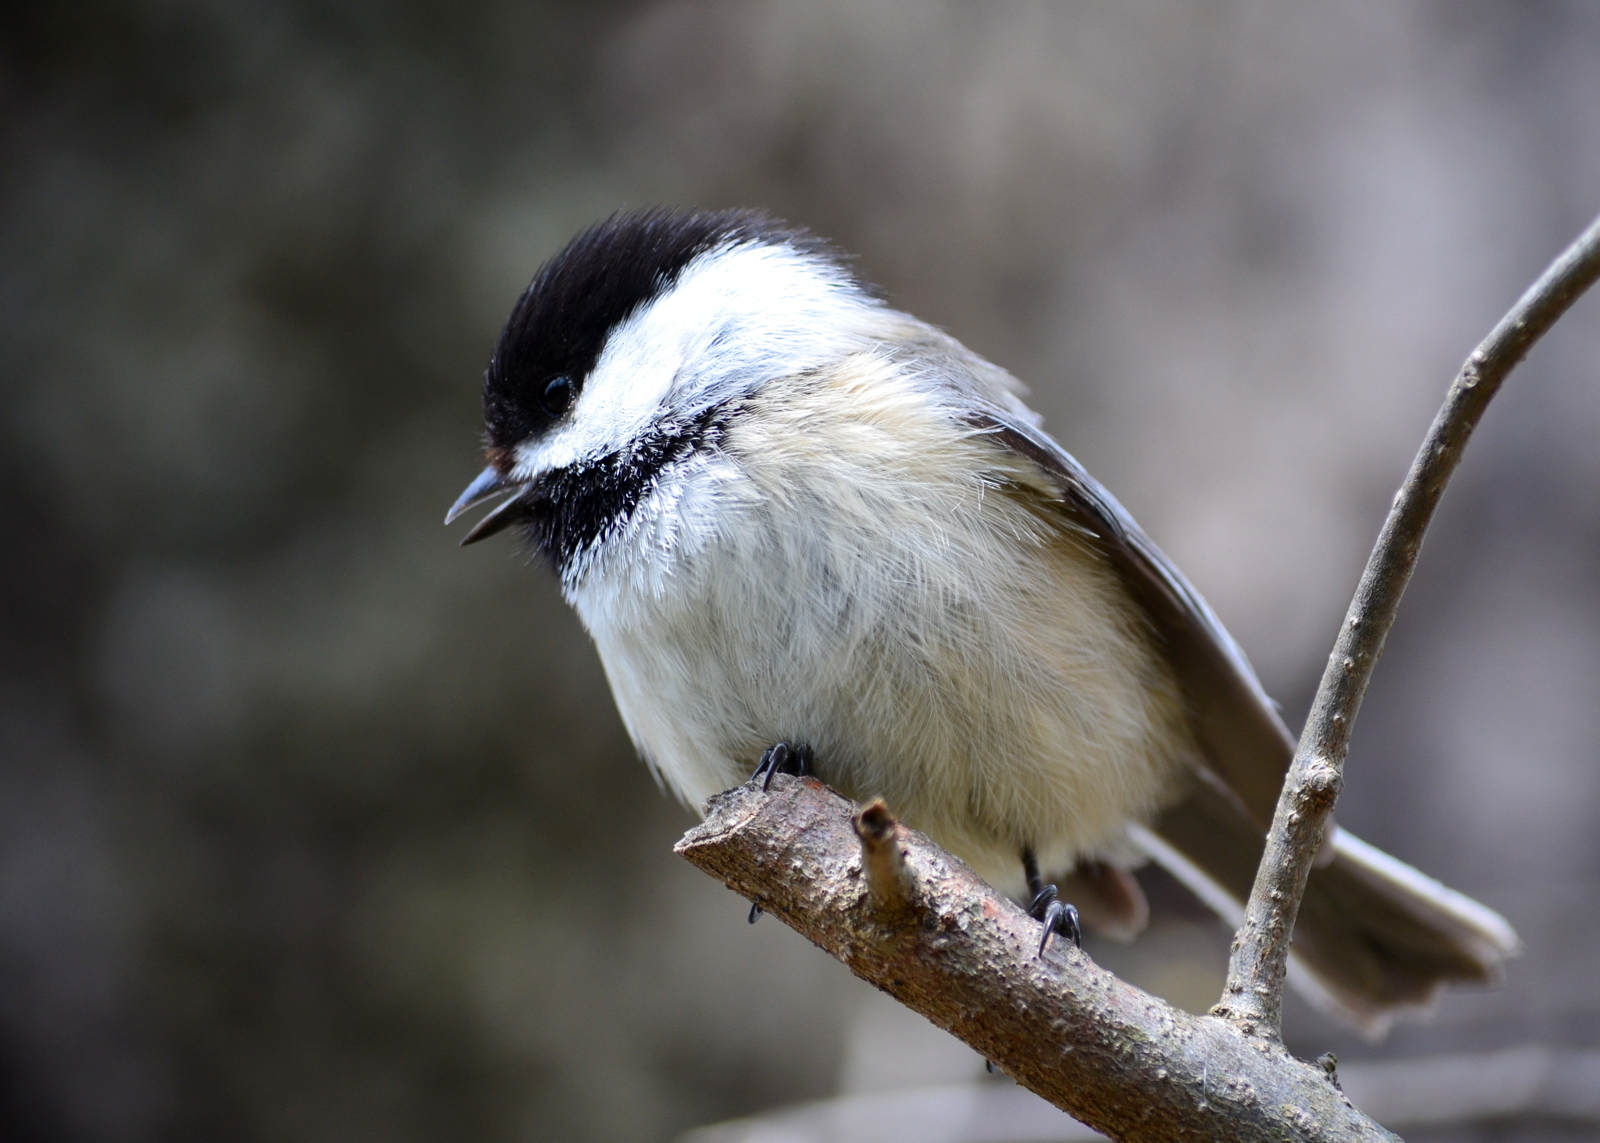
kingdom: Animalia
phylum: Chordata
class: Aves
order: Passeriformes
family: Paridae
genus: Poecile
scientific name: Poecile atricapillus
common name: Black-capped chickadee
